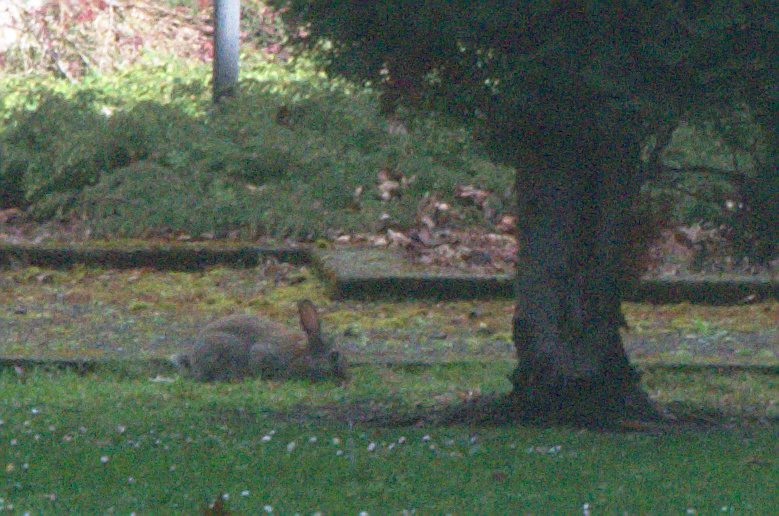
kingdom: Animalia
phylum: Chordata
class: Mammalia
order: Lagomorpha
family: Leporidae
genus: Oryctolagus
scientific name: Oryctolagus cuniculus
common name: European rabbit
